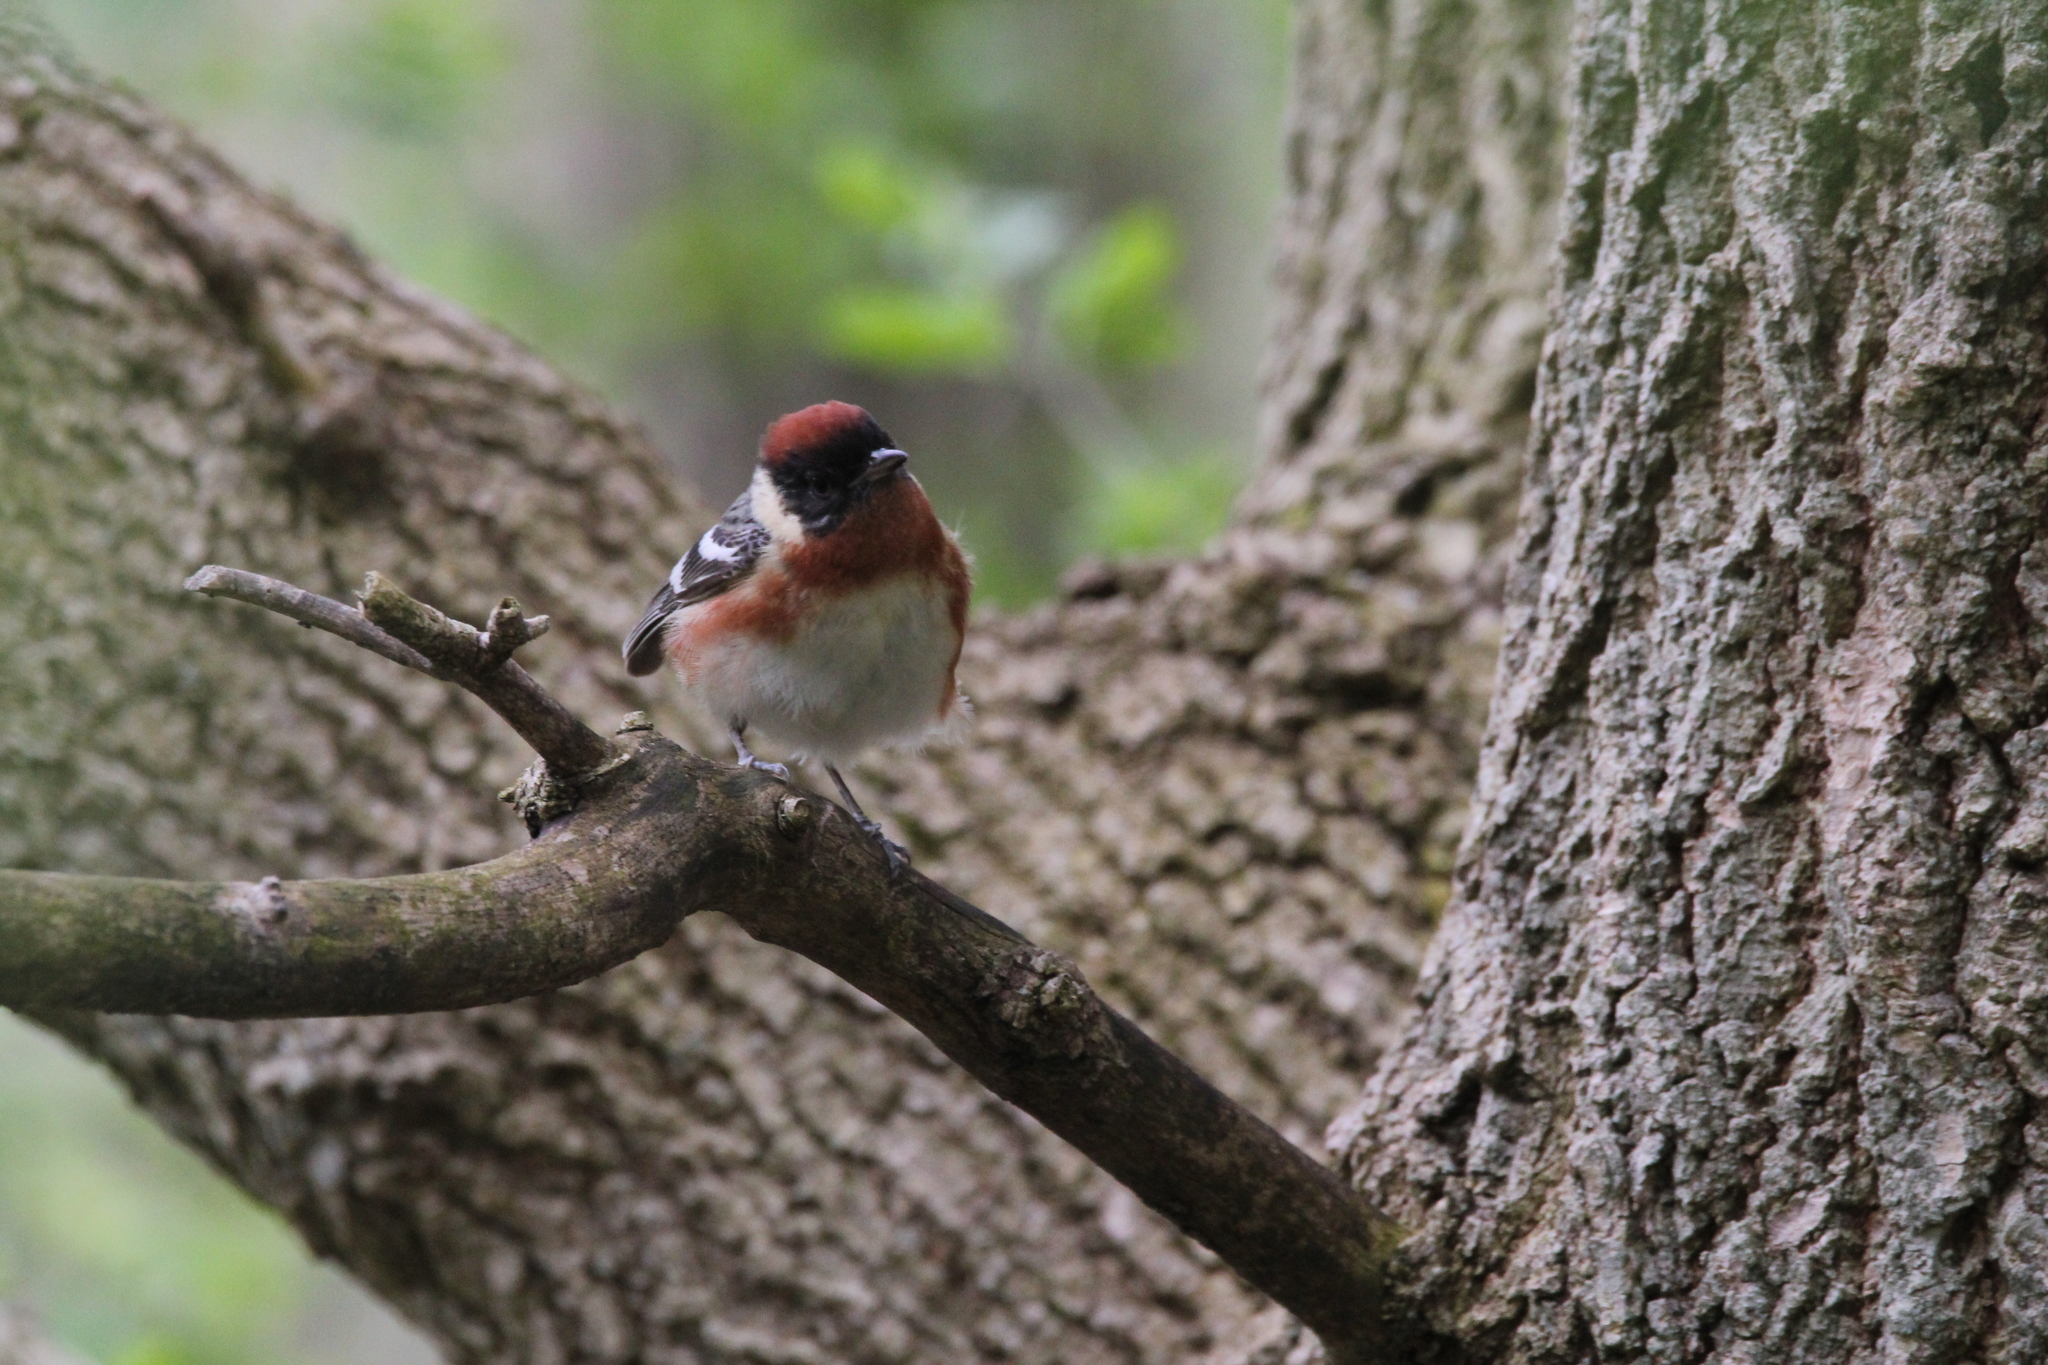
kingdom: Animalia
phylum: Chordata
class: Aves
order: Passeriformes
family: Parulidae
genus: Setophaga
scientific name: Setophaga castanea
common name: Bay-breasted warbler
